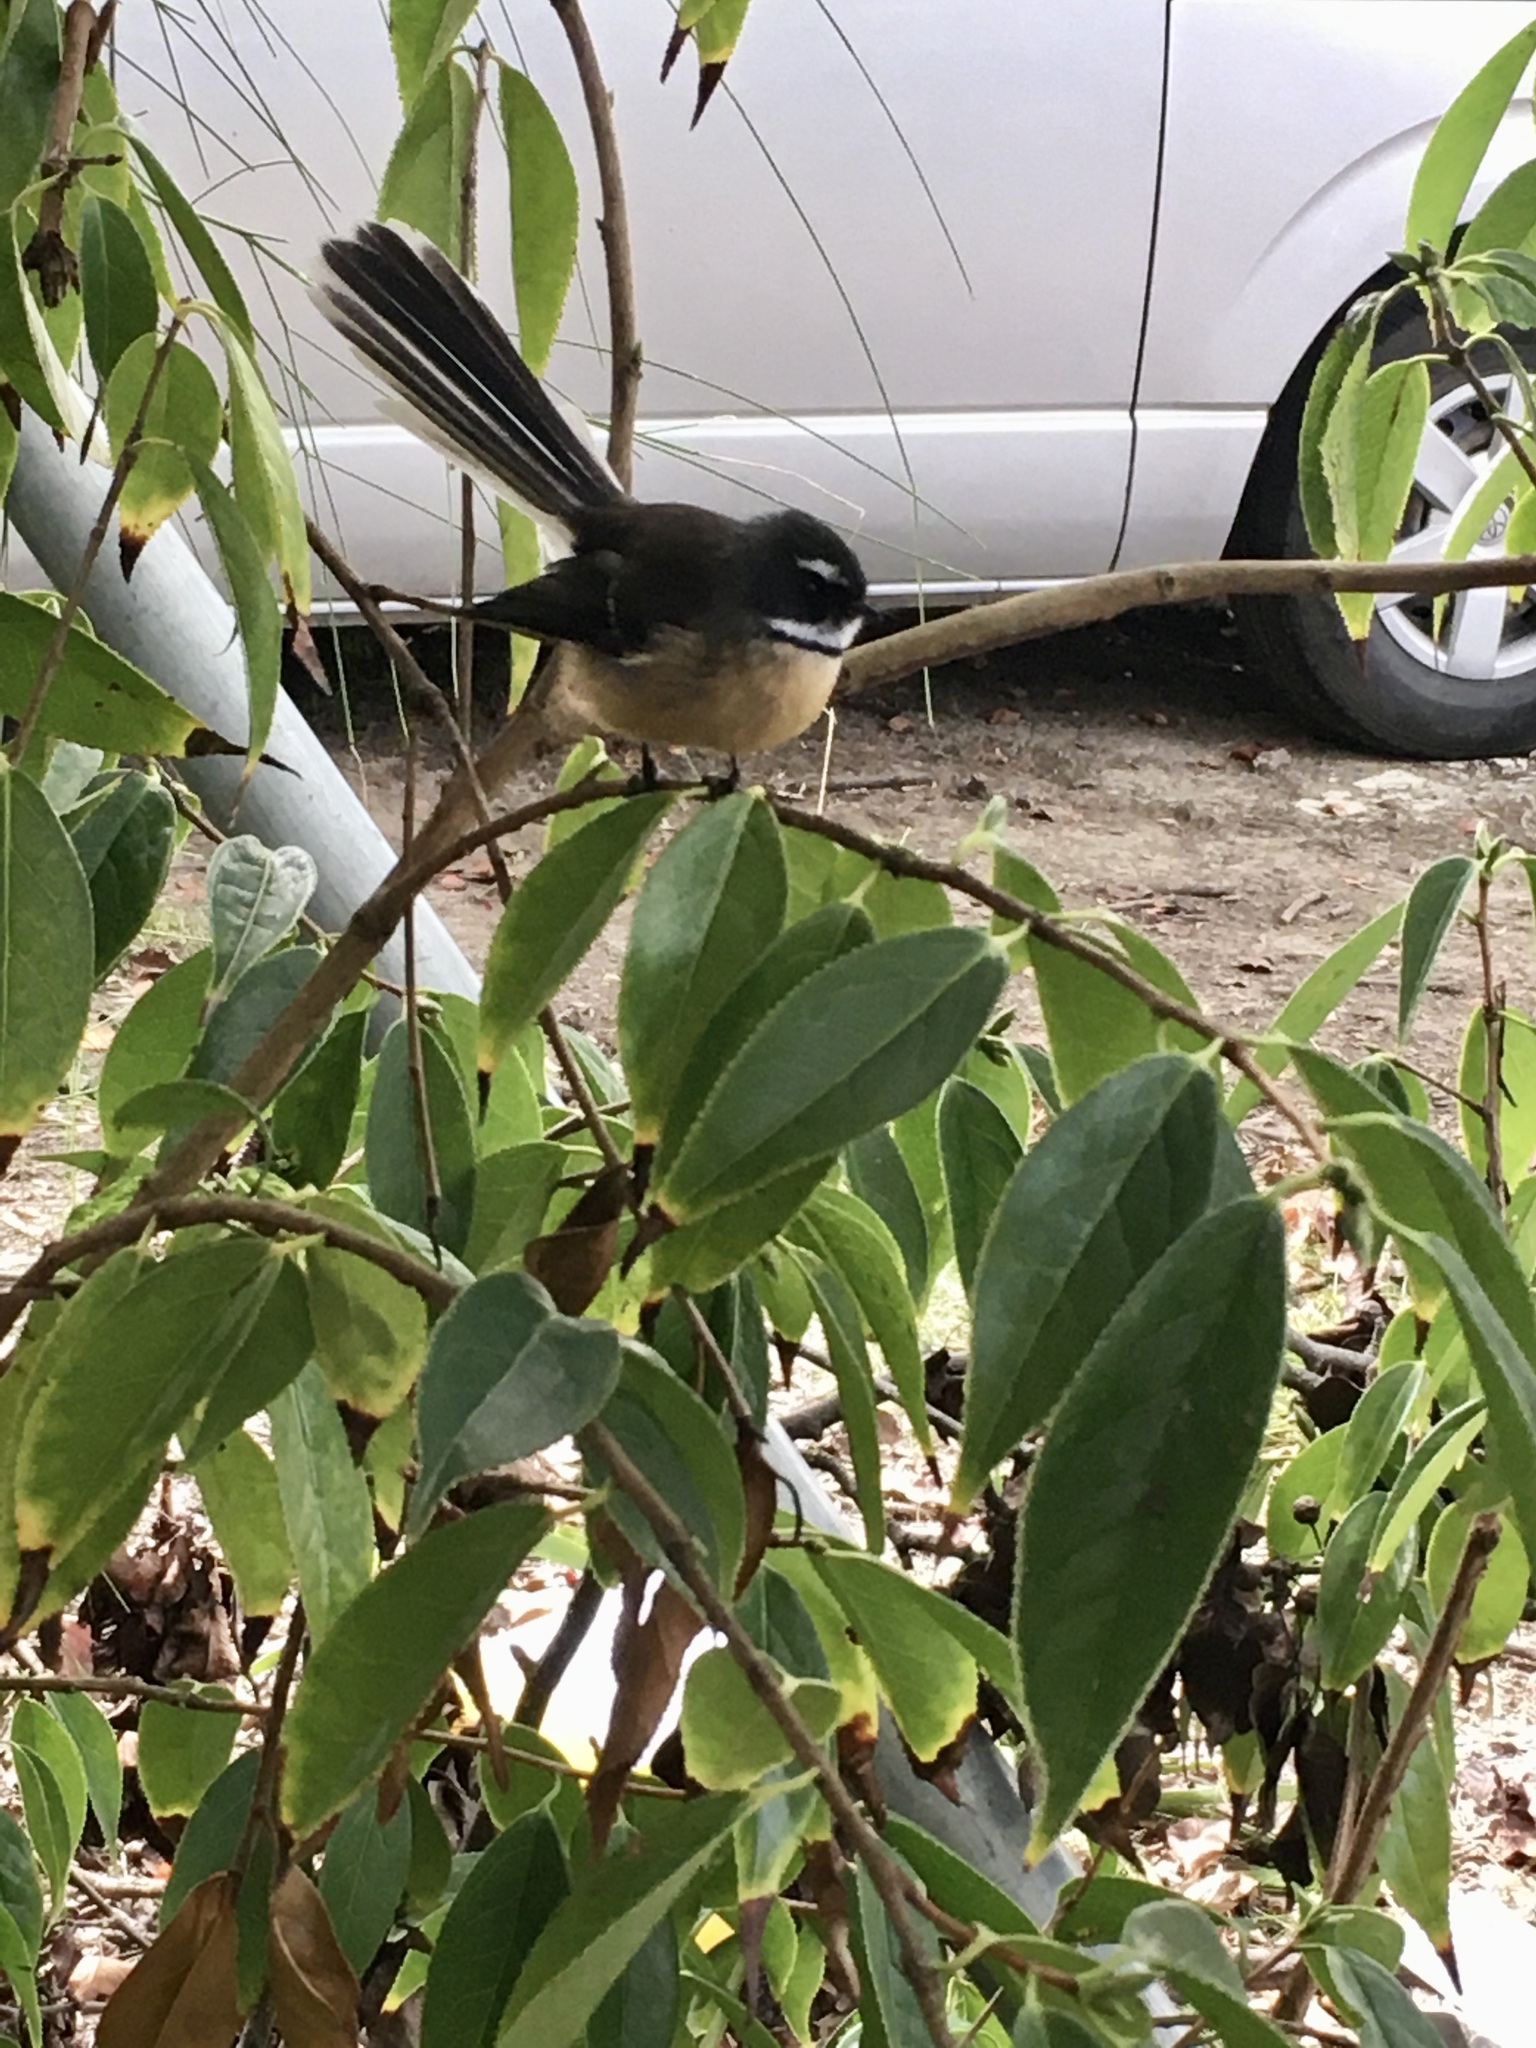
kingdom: Animalia
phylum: Chordata
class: Aves
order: Passeriformes
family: Rhipiduridae
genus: Rhipidura
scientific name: Rhipidura fuliginosa
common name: New zealand fantail
